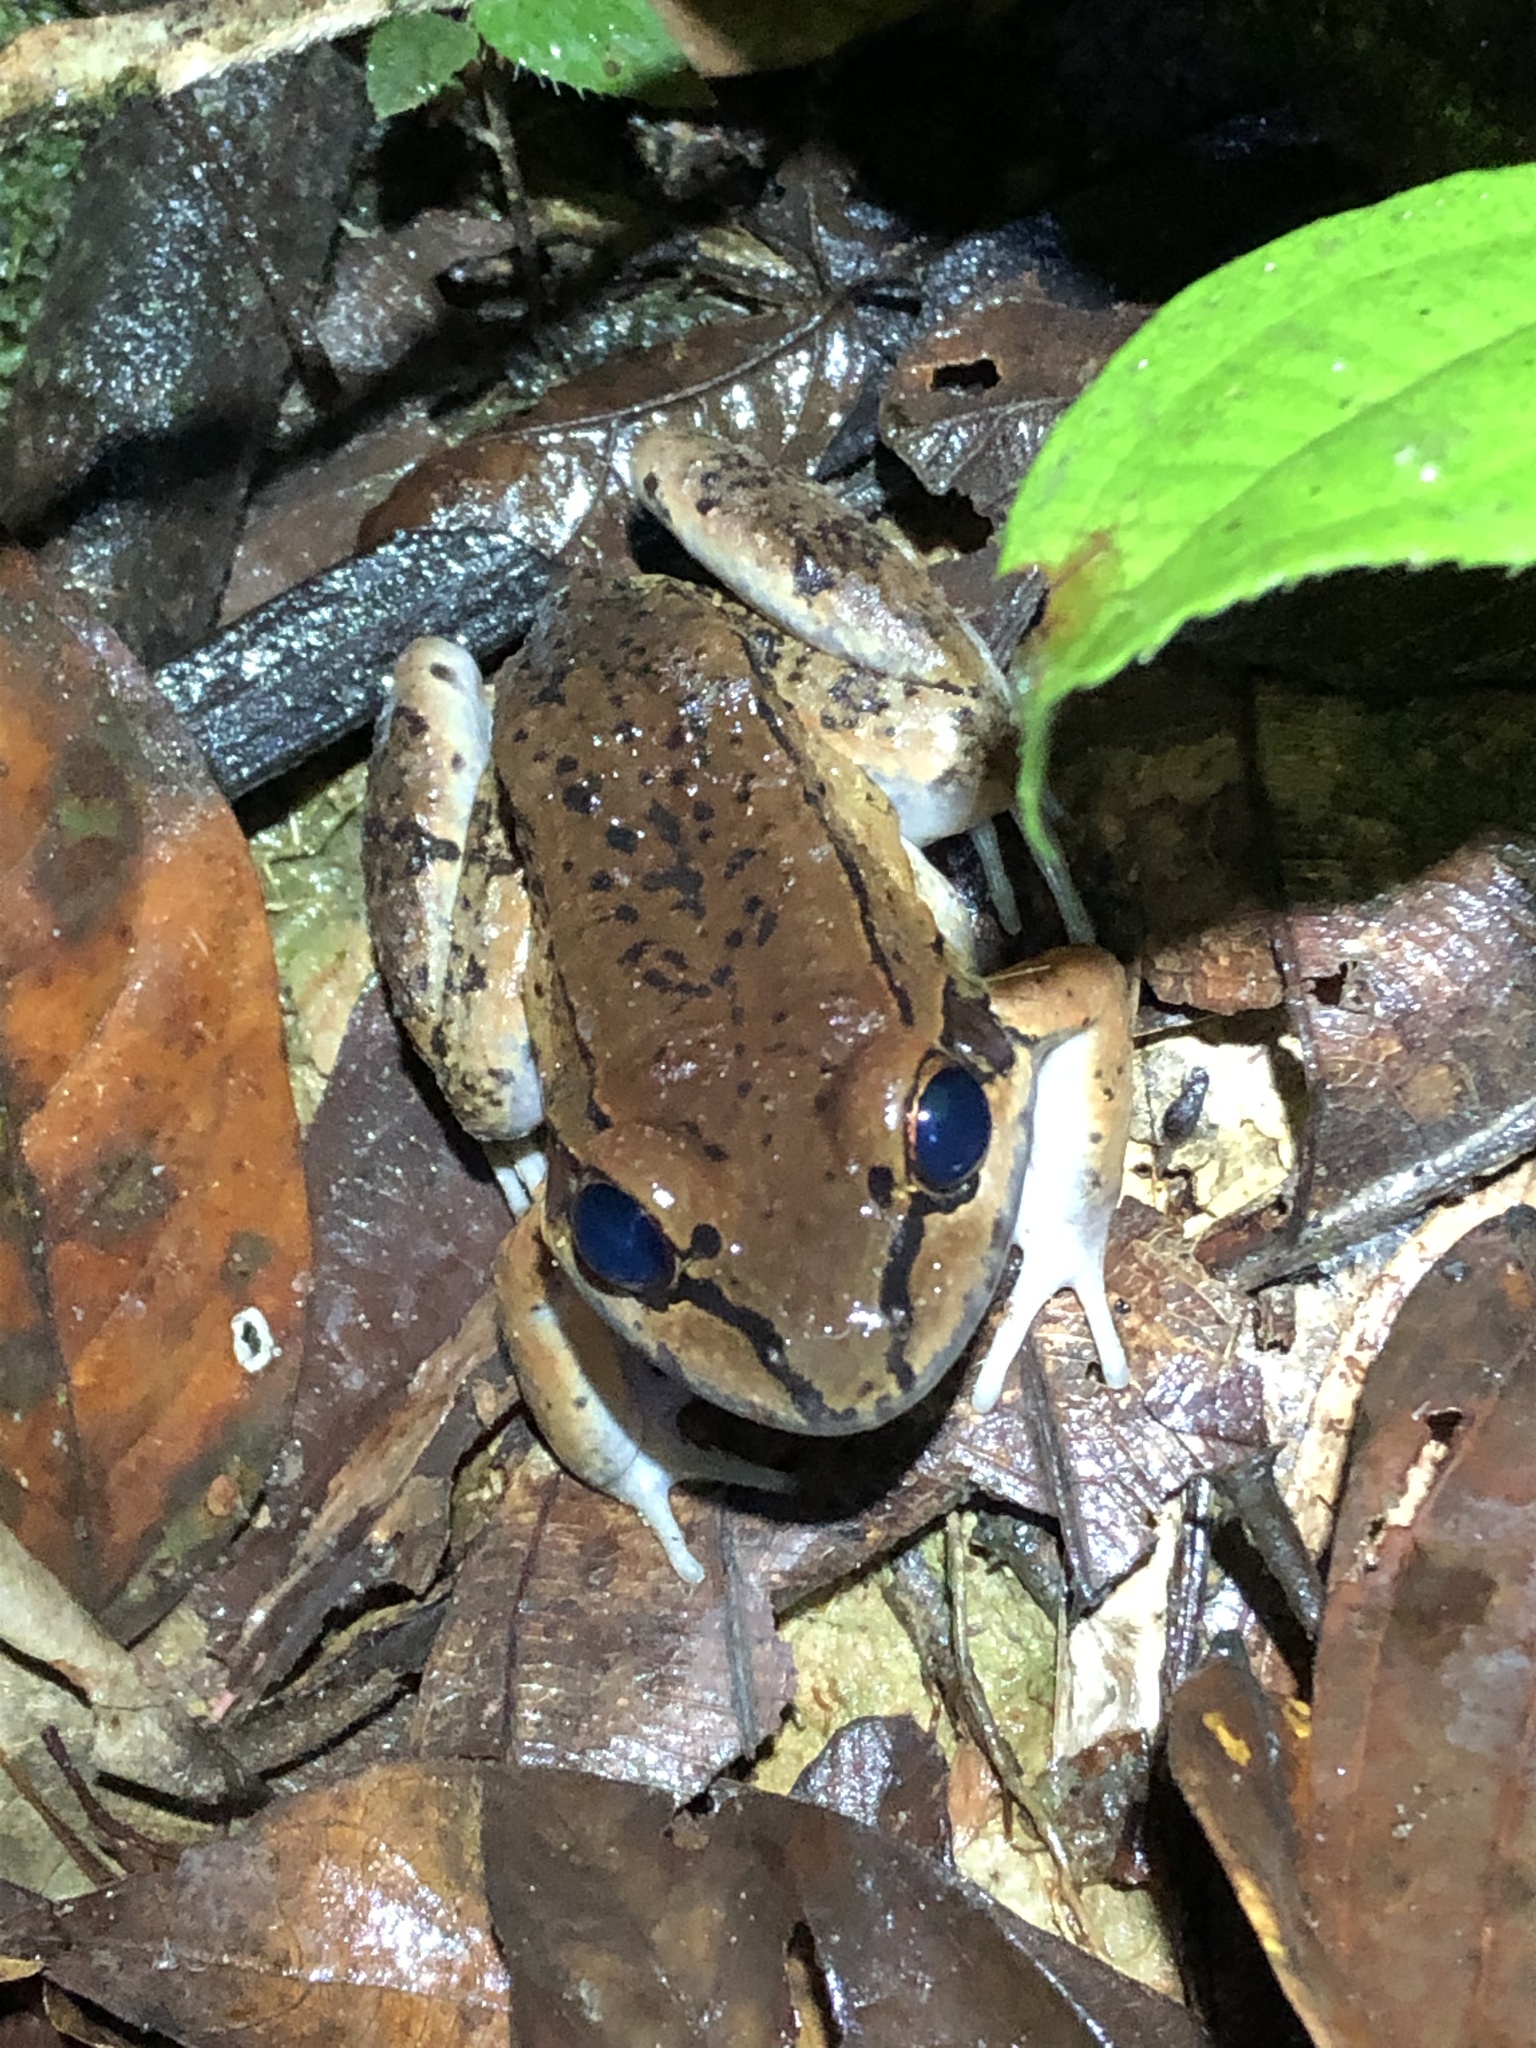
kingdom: Animalia
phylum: Chordata
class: Amphibia
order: Anura
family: Leptodactylidae
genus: Leptodactylus
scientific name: Leptodactylus rhodonotus
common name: Peru white-lipped frog
